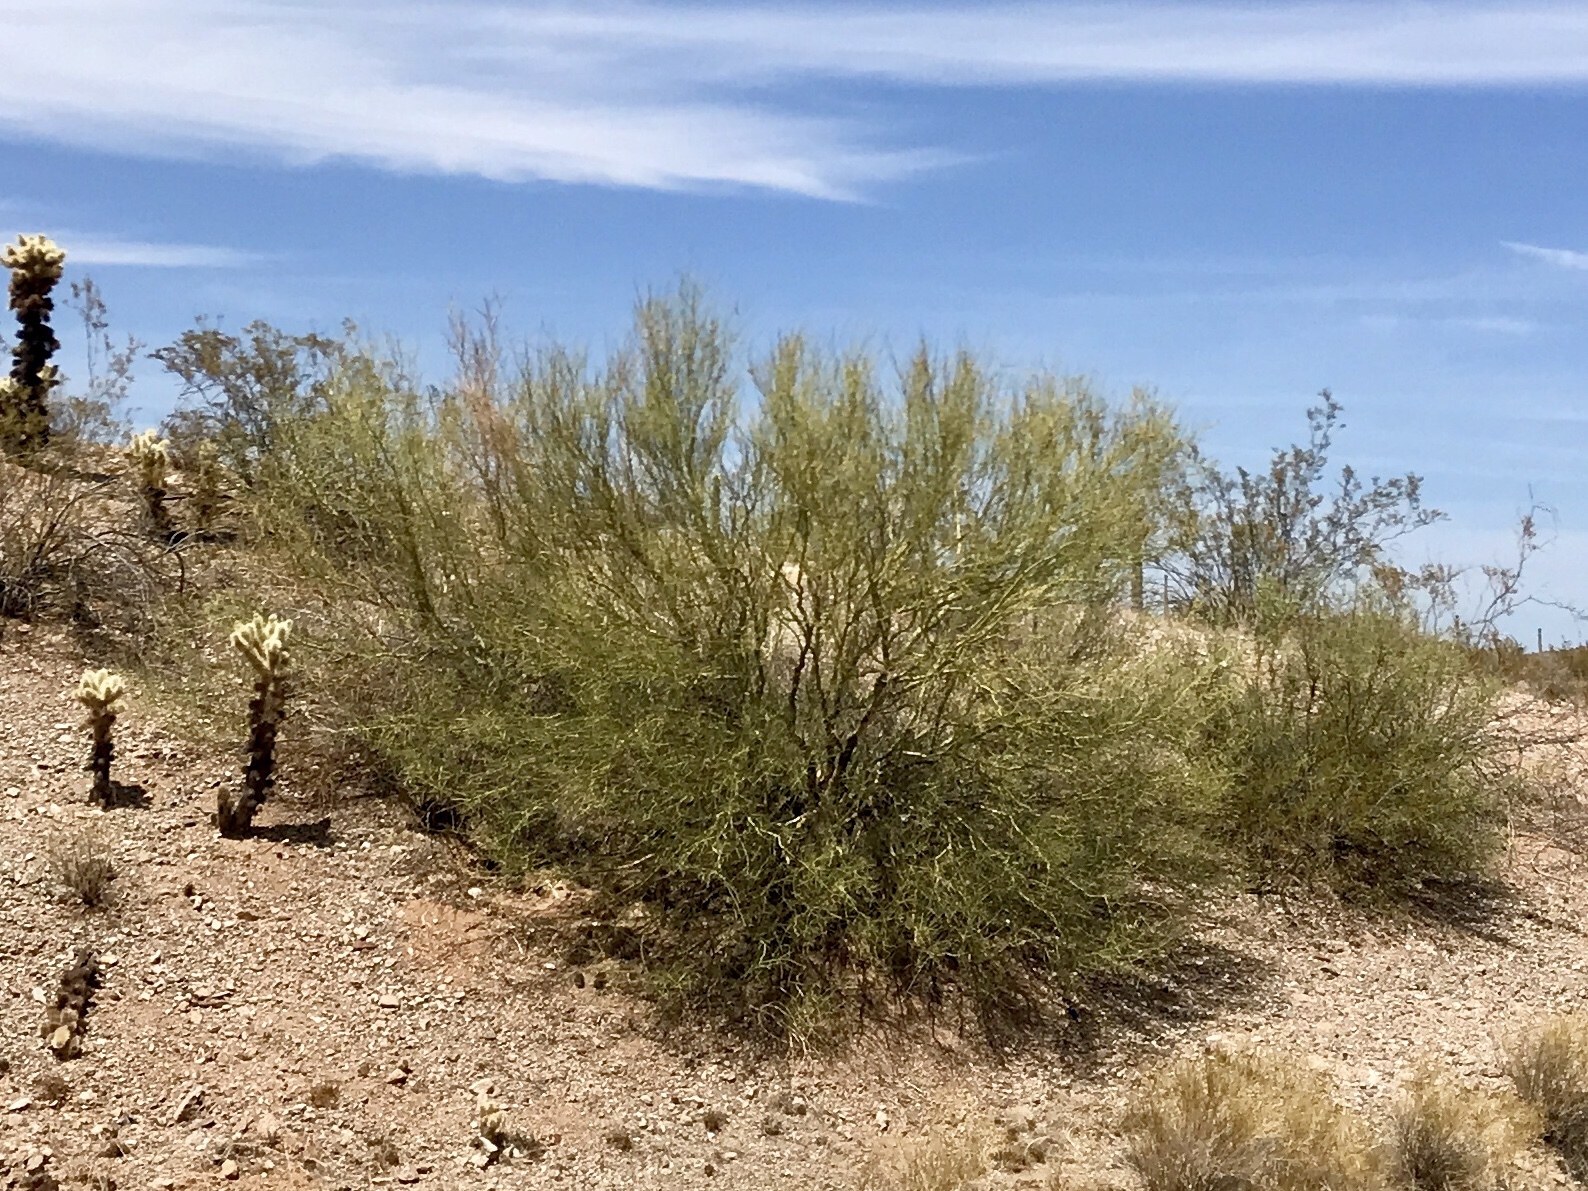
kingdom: Plantae
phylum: Tracheophyta
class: Magnoliopsida
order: Fabales
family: Fabaceae
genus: Parkinsonia
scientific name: Parkinsonia microphylla
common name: Yellow paloverde
